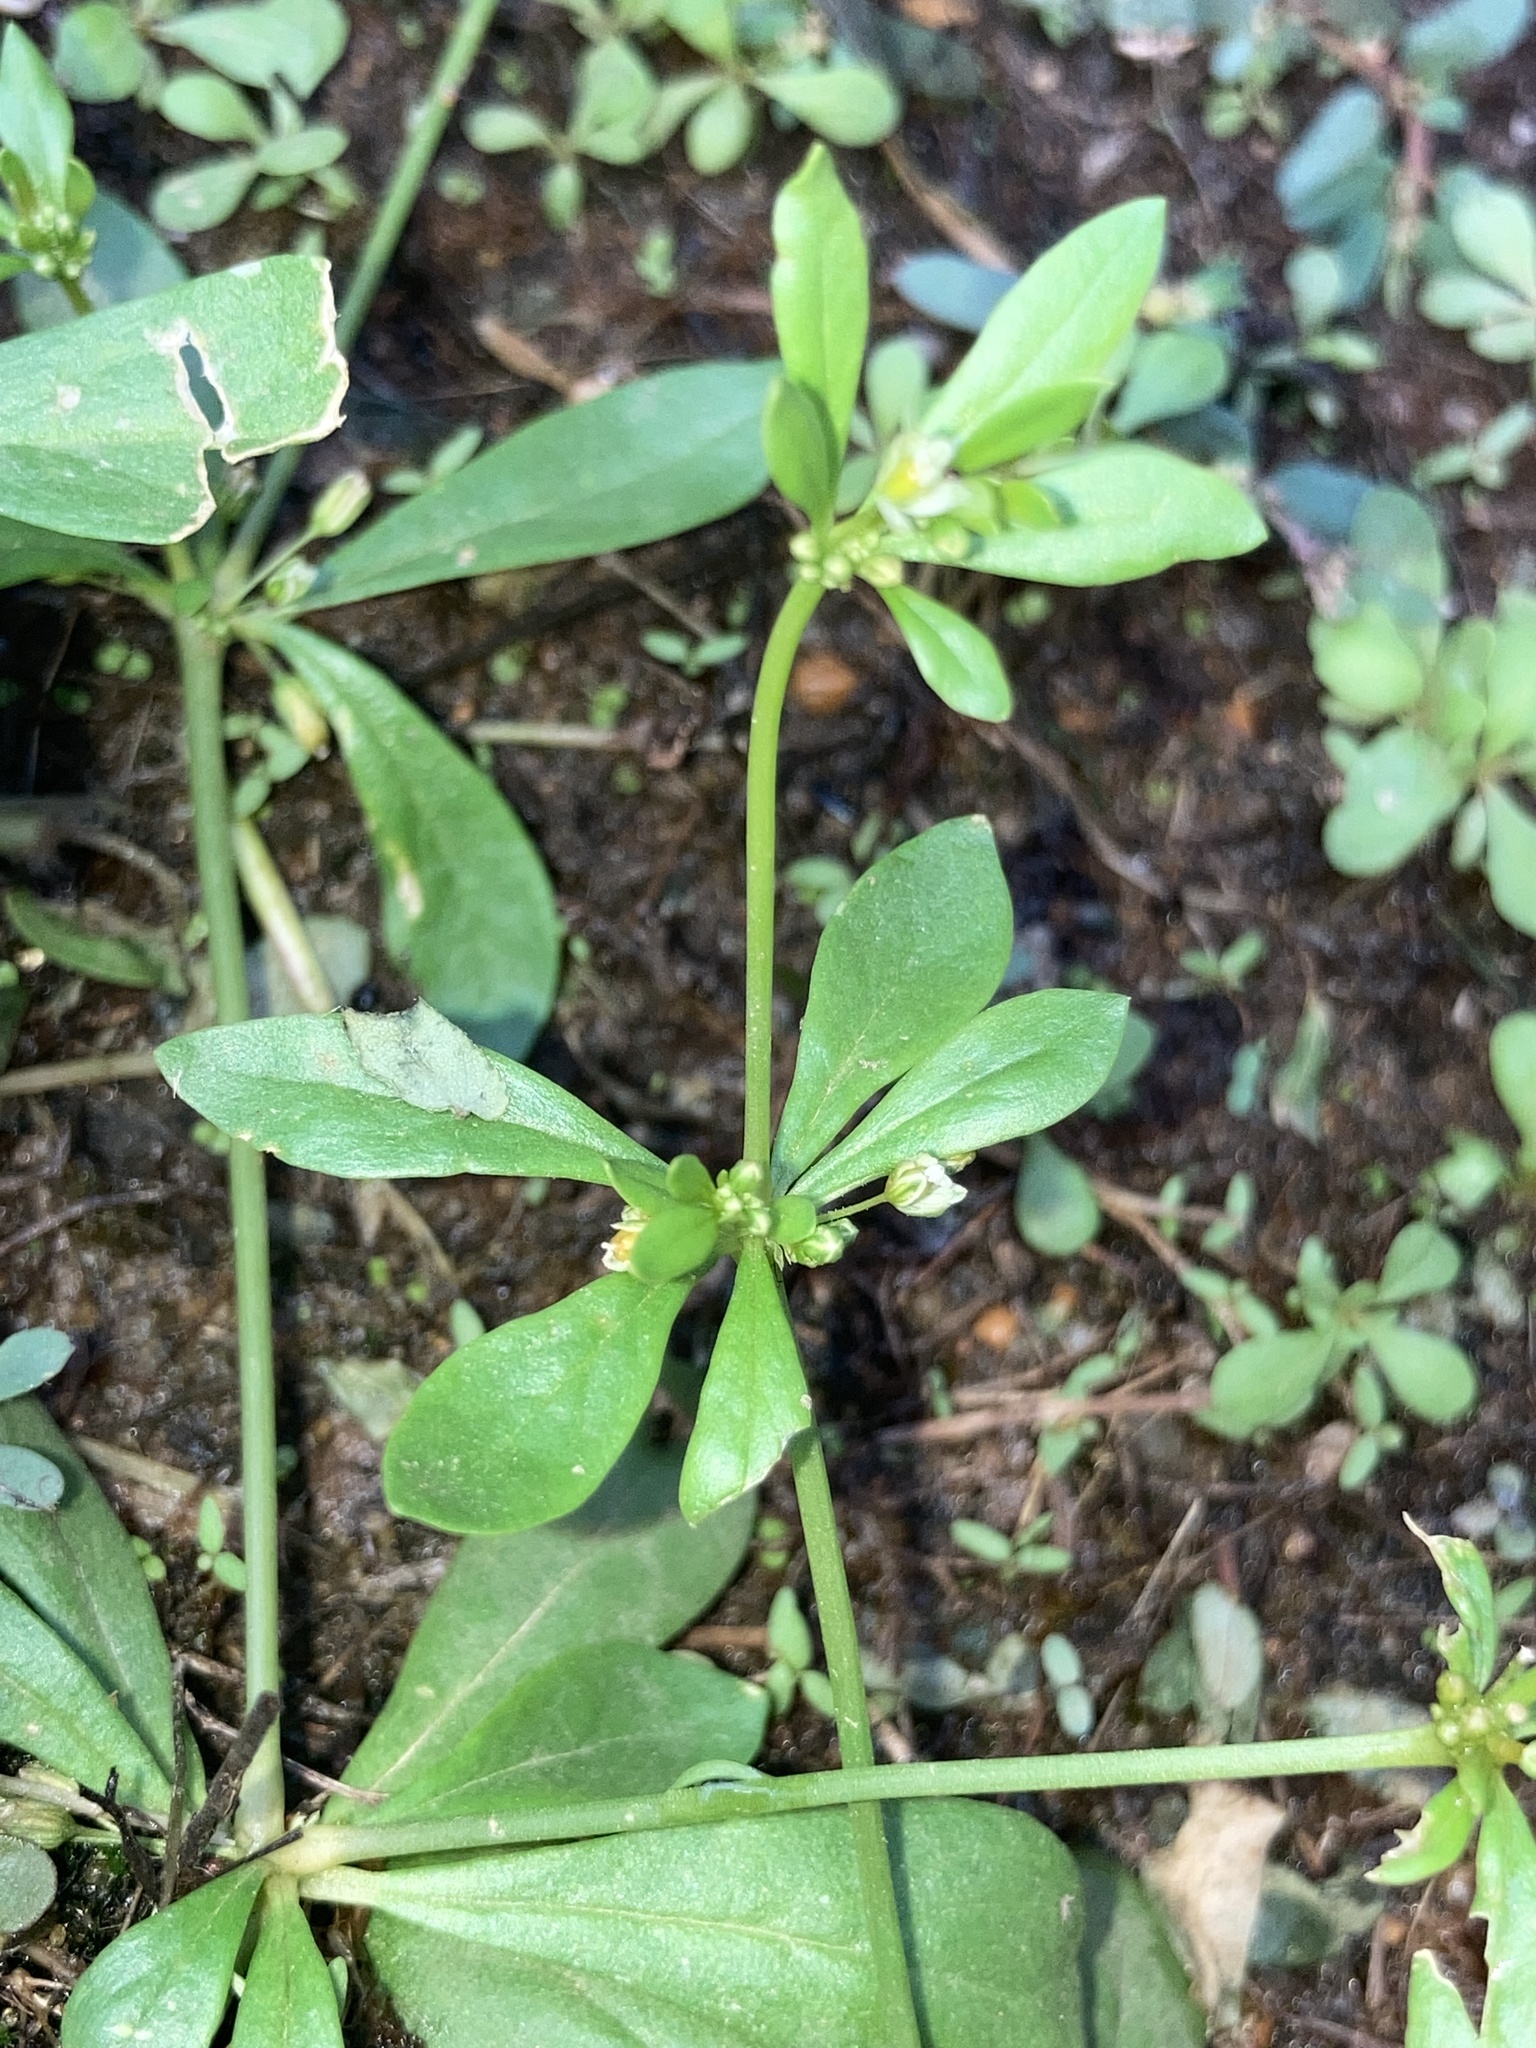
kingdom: Plantae
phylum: Tracheophyta
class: Magnoliopsida
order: Caryophyllales
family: Molluginaceae
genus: Mollugo
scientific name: Mollugo verticillata
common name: Green carpetweed
